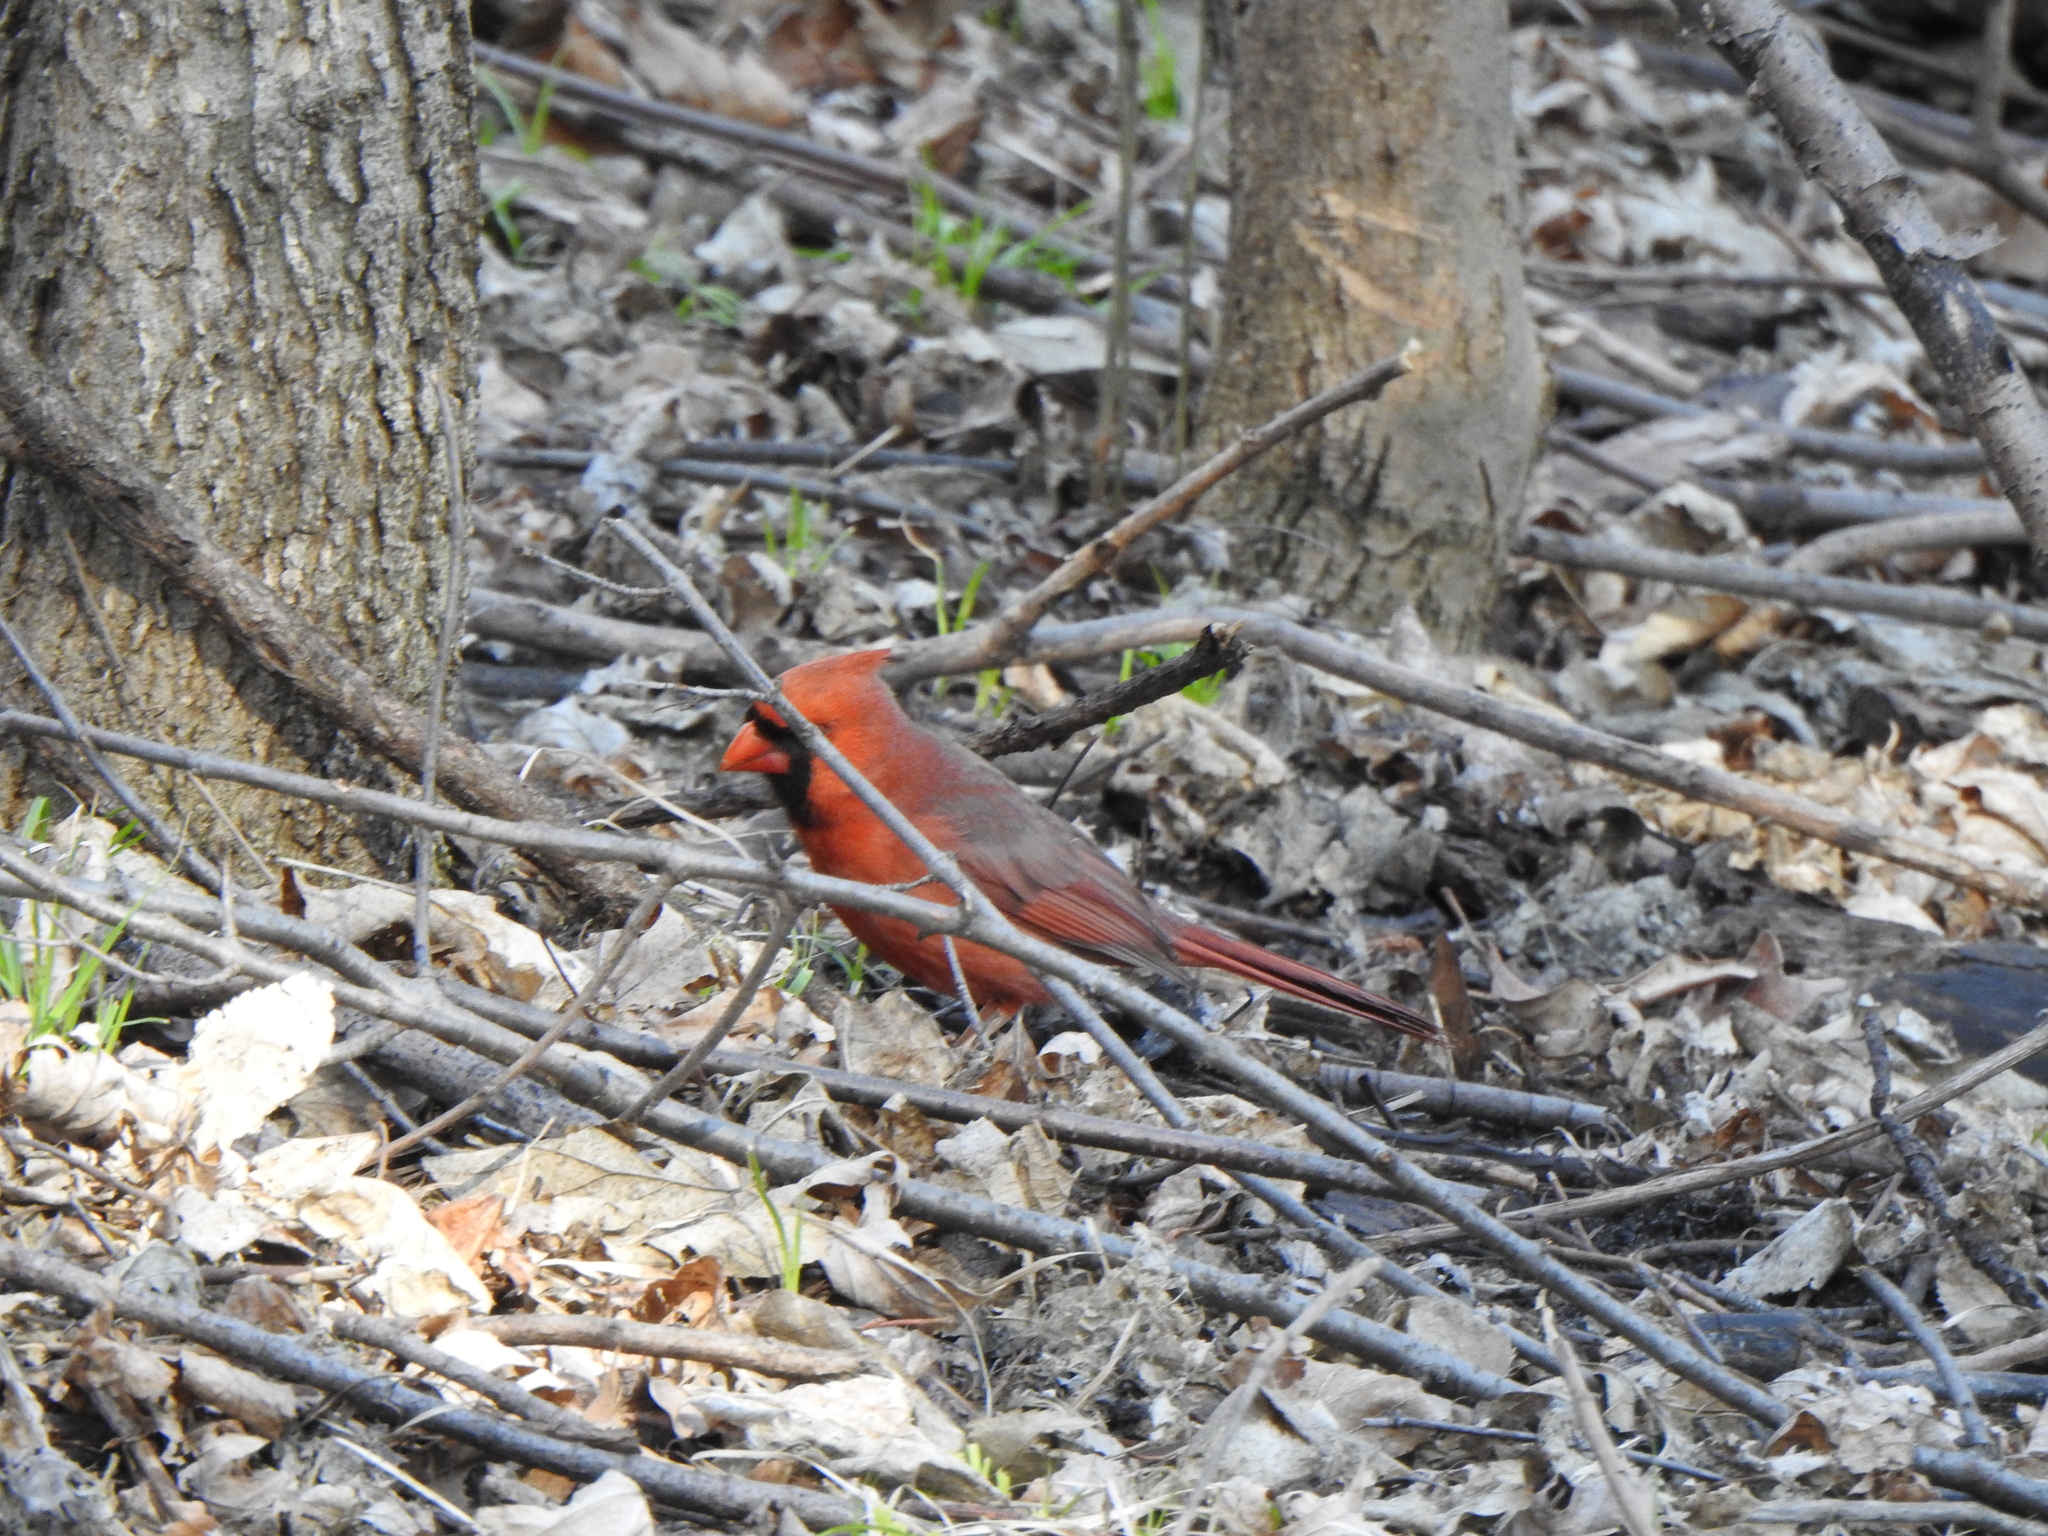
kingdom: Animalia
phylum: Chordata
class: Aves
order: Passeriformes
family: Cardinalidae
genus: Cardinalis
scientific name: Cardinalis cardinalis
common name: Northern cardinal
